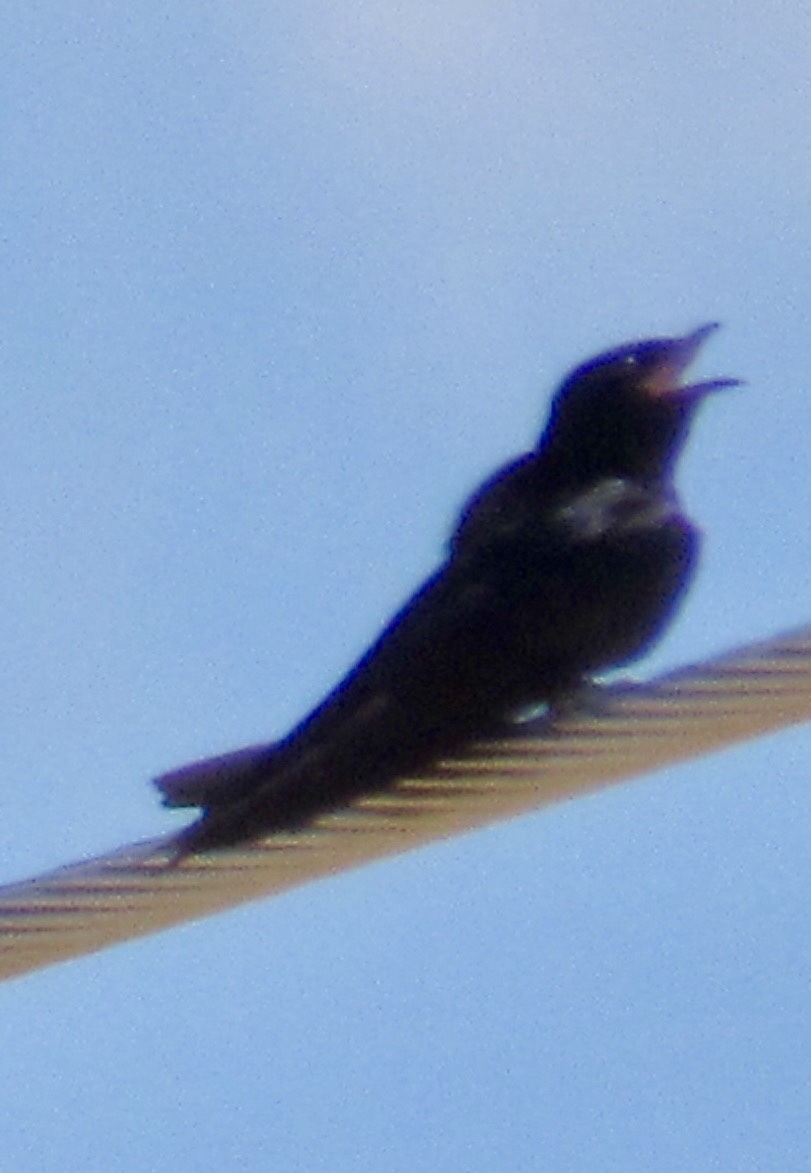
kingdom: Animalia
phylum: Chordata
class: Aves
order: Passeriformes
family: Hirundinidae
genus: Progne
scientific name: Progne subis
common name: Purple martin
